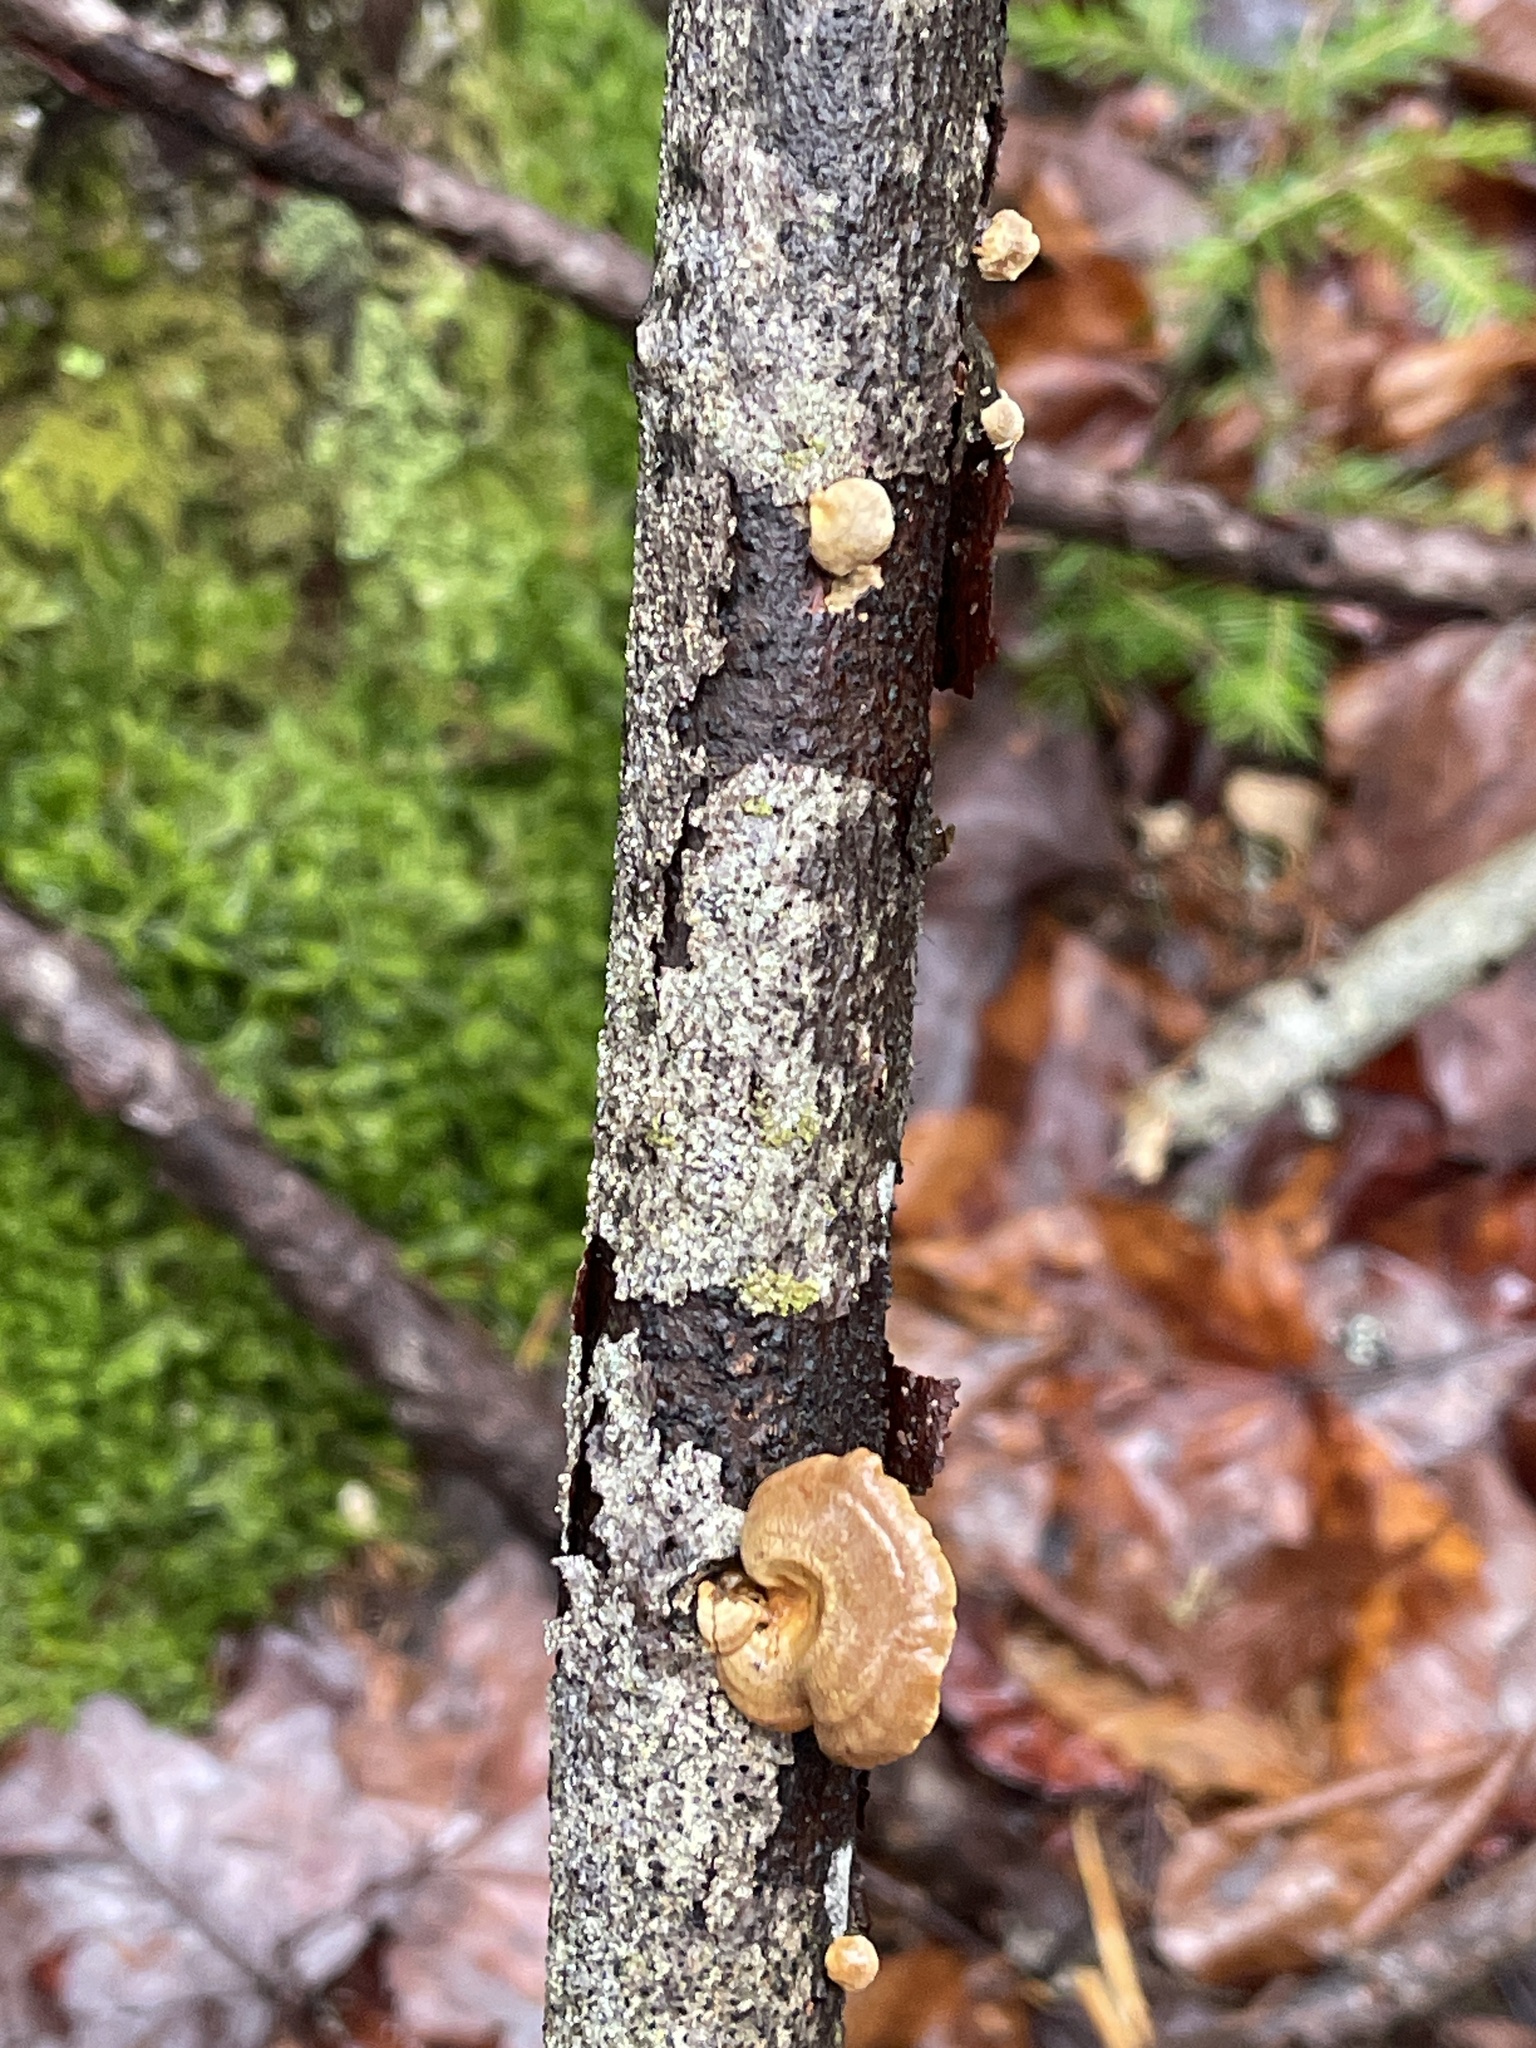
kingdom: Fungi
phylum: Basidiomycota
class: Agaricomycetes
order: Agaricales
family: Mycenaceae
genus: Panellus
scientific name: Panellus stipticus
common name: Bitter oysterling
